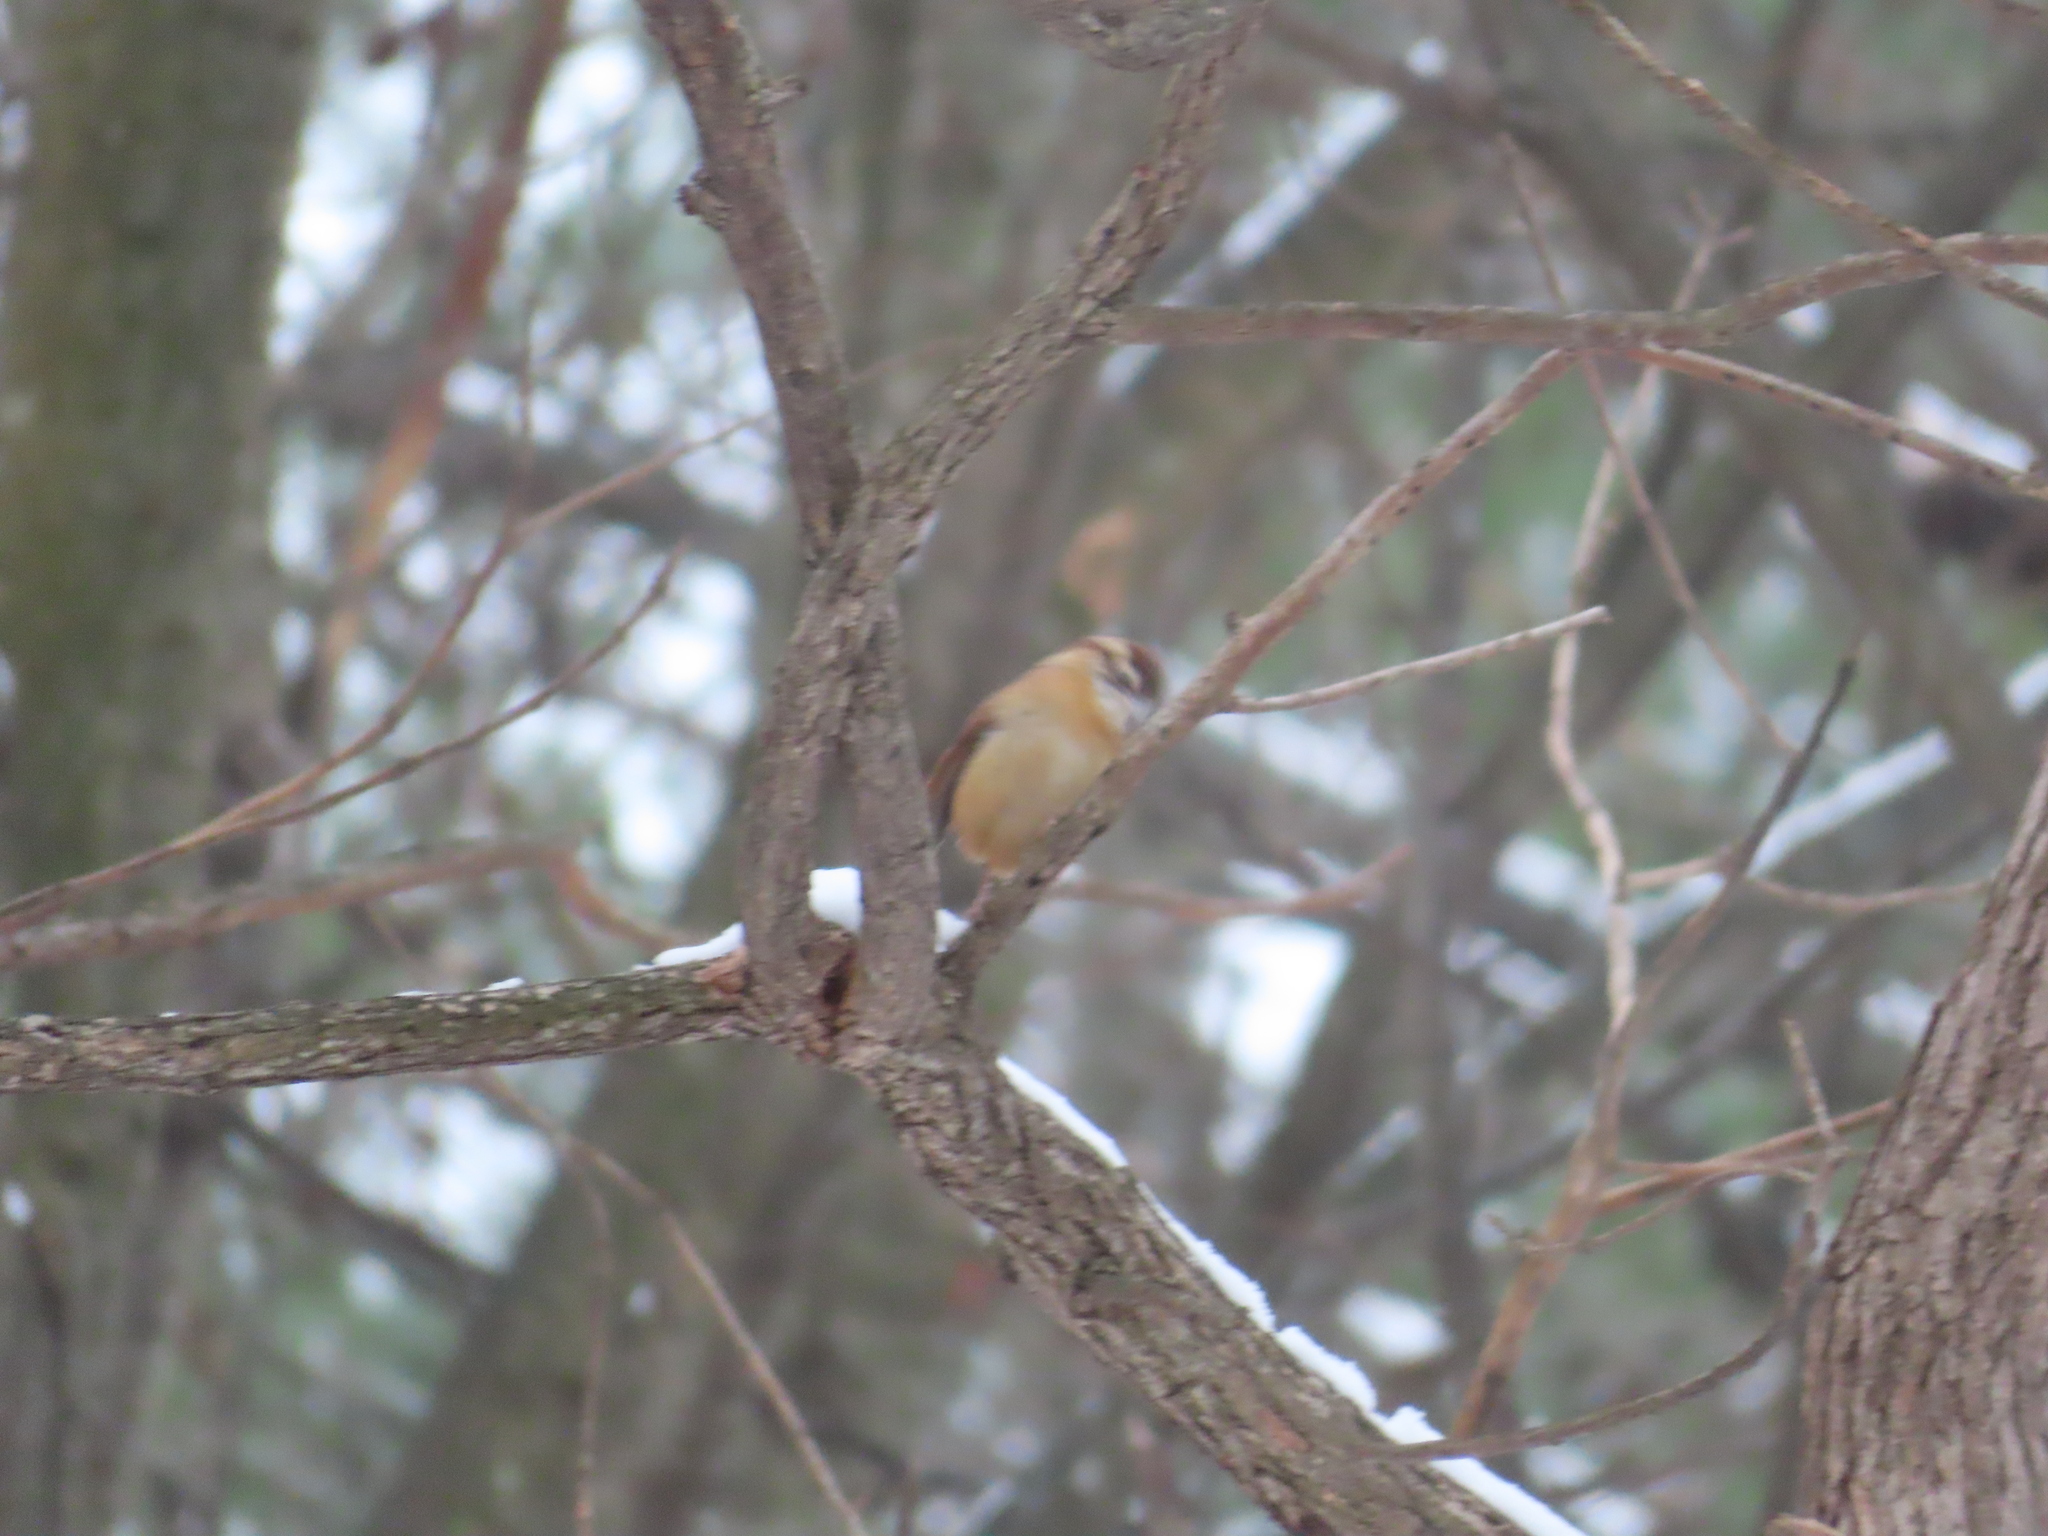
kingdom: Animalia
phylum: Chordata
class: Aves
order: Anseriformes
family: Anatidae
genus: Anser
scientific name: Anser caerulescens
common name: Snow goose
